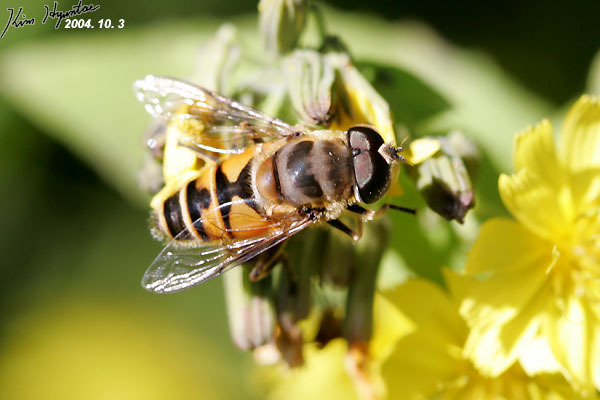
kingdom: Animalia
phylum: Arthropoda
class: Insecta
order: Diptera
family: Syrphidae
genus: Eristalis
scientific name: Eristalis cerealis
